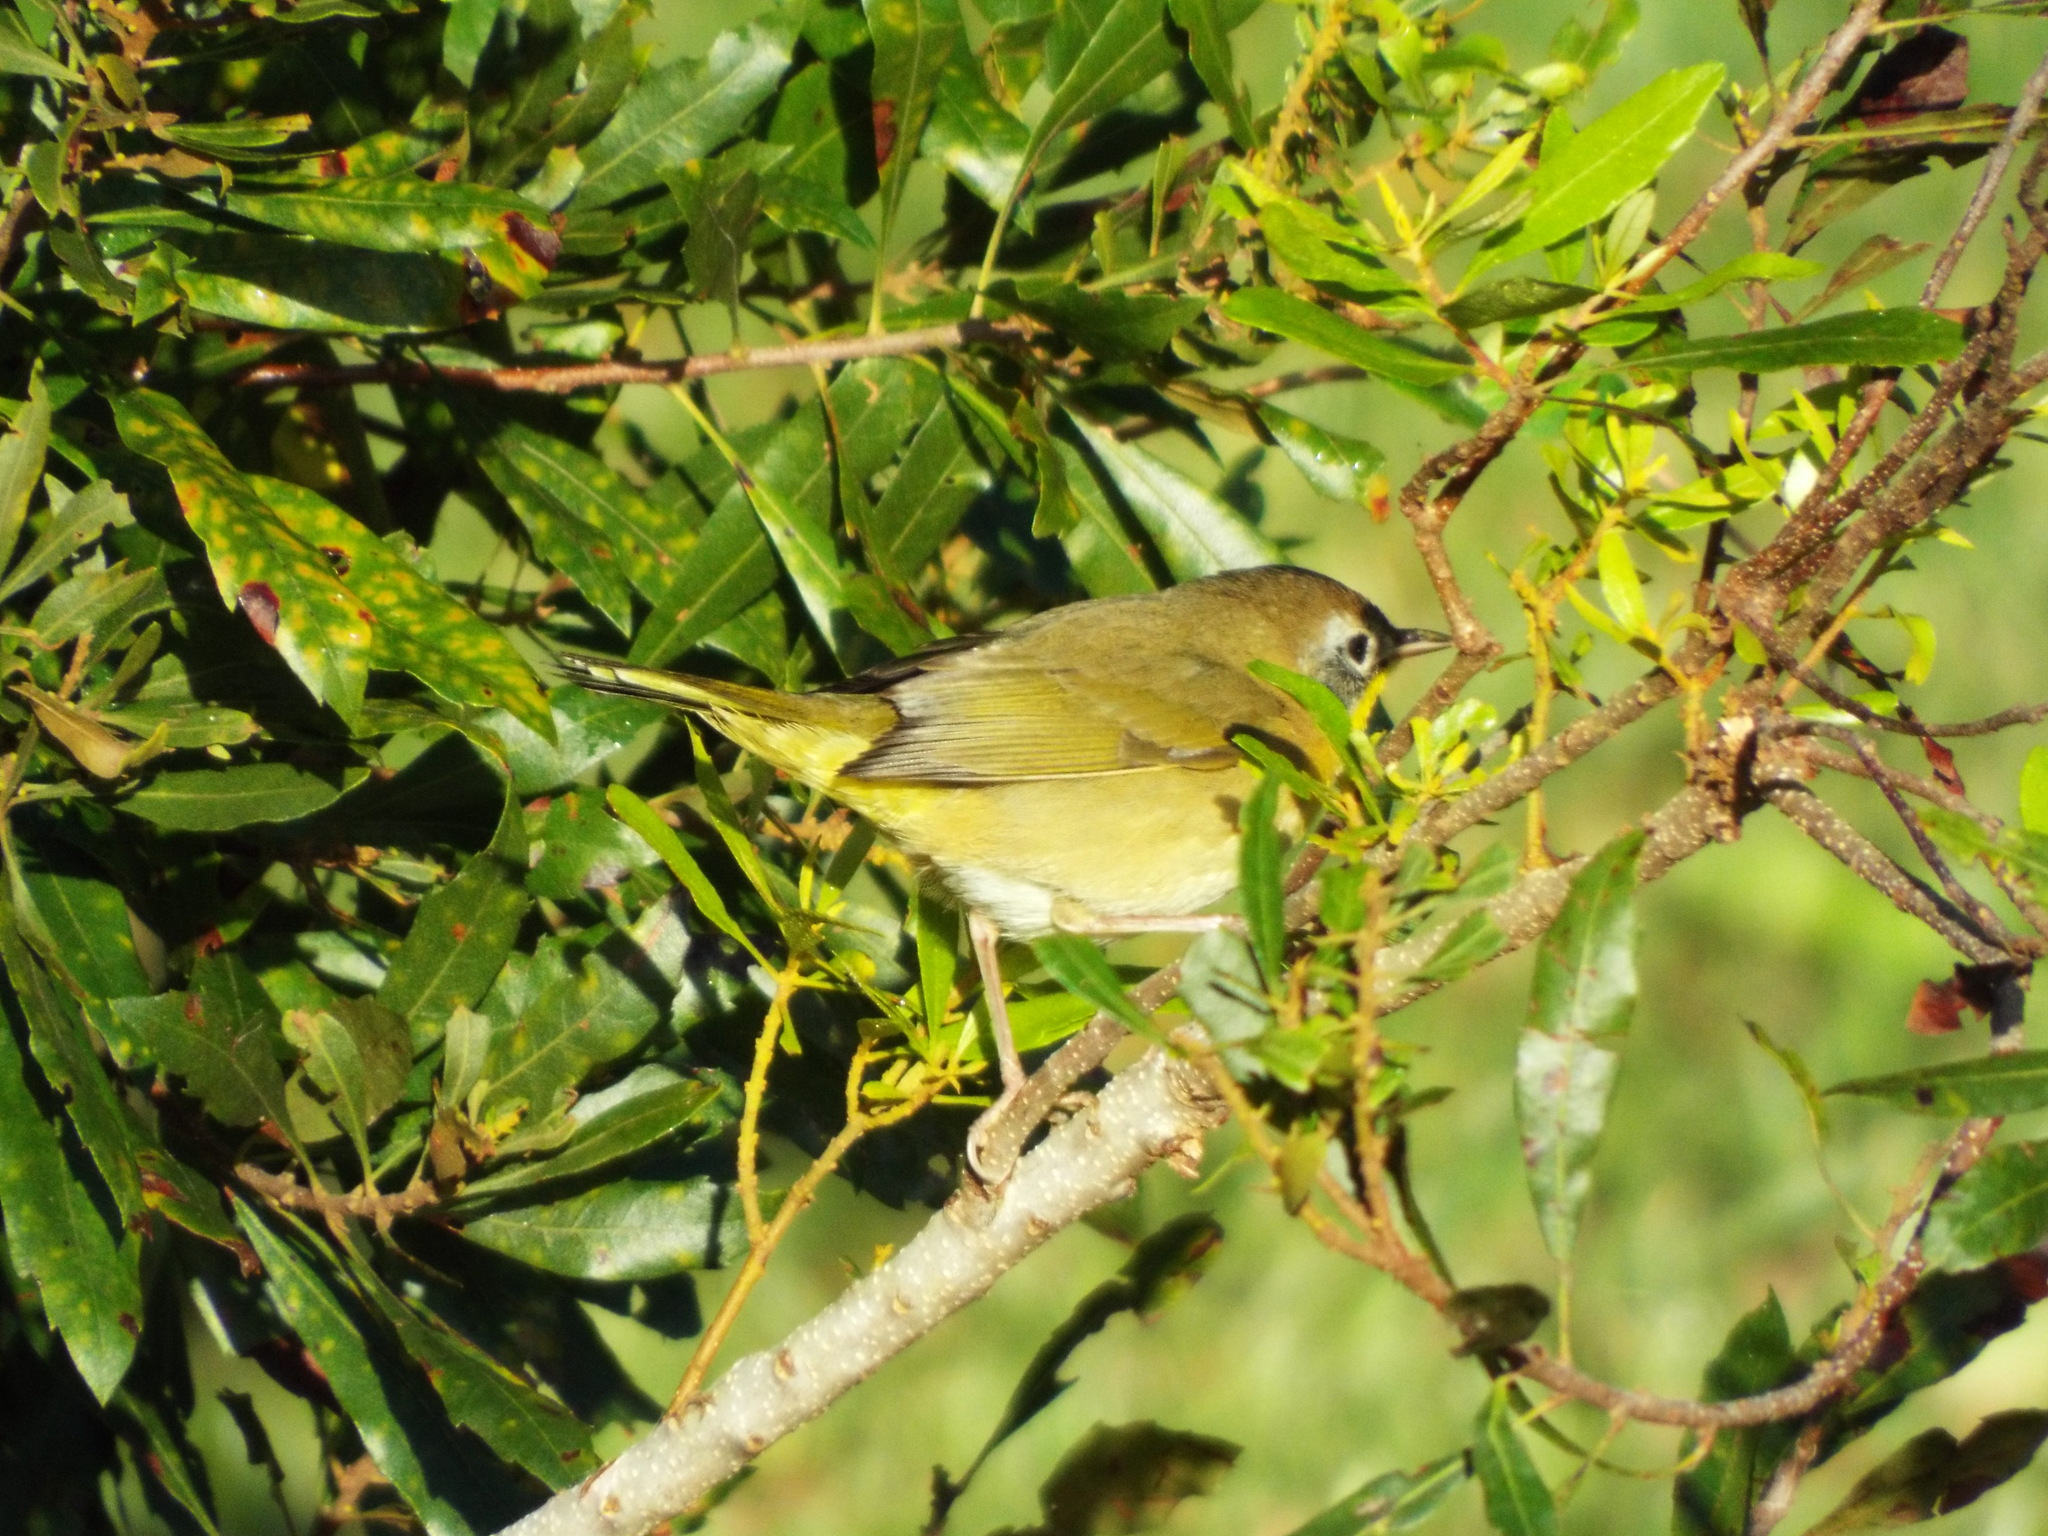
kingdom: Animalia
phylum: Chordata
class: Aves
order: Passeriformes
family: Parulidae
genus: Geothlypis
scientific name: Geothlypis trichas
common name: Common yellowthroat
